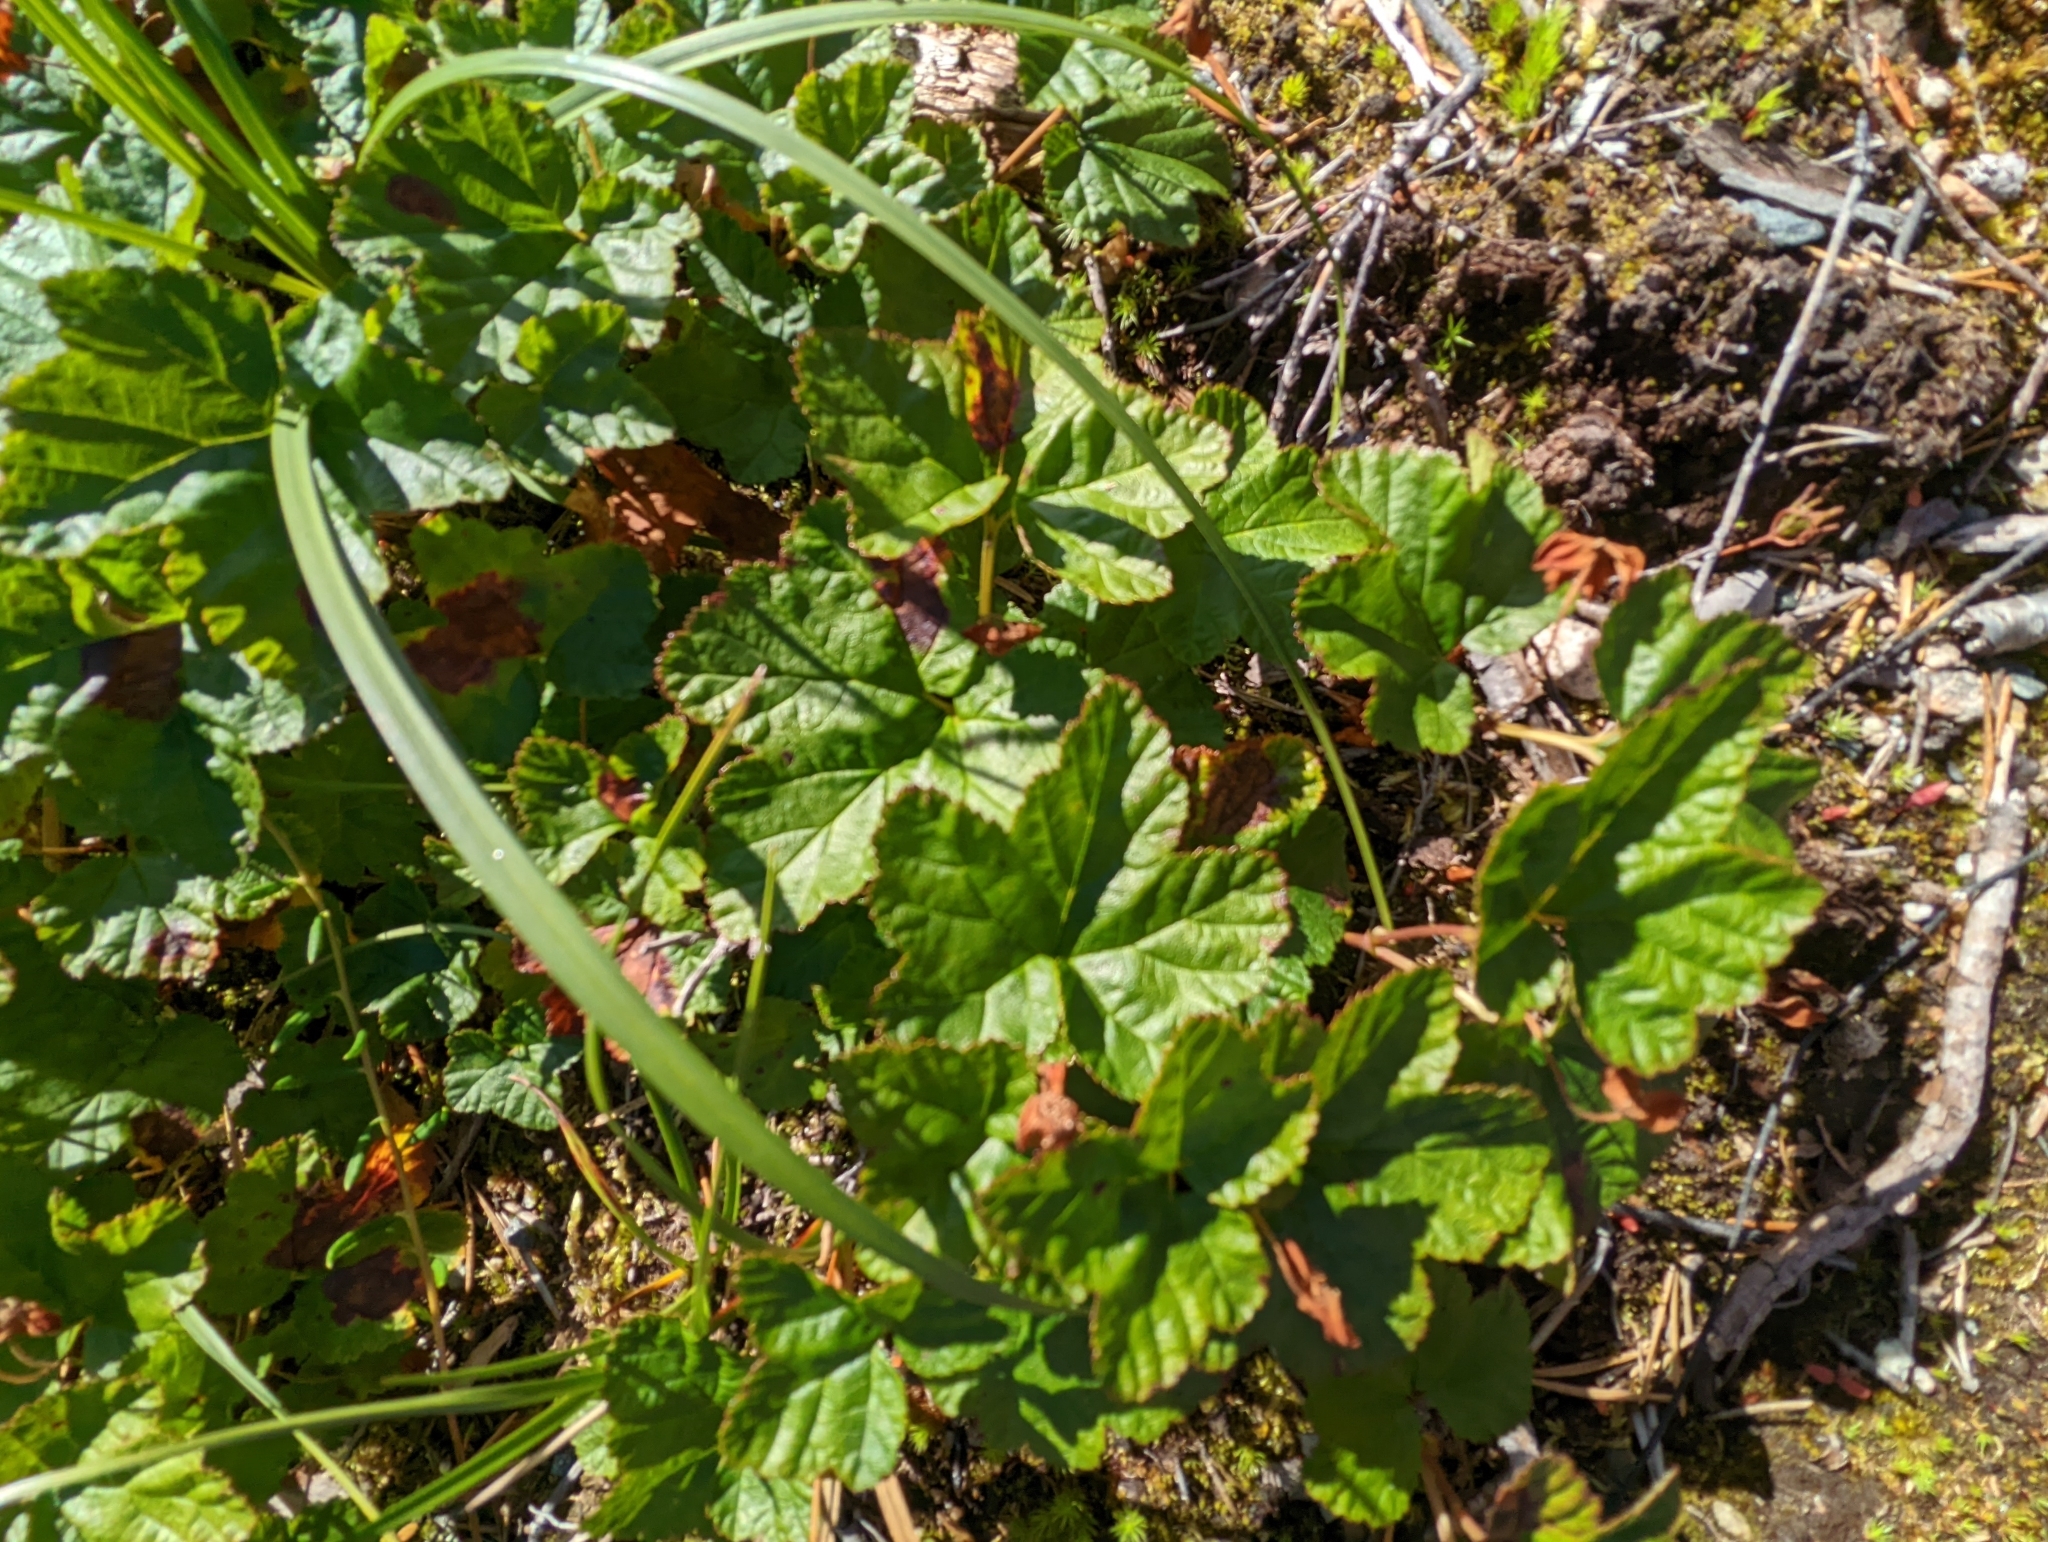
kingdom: Plantae
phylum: Tracheophyta
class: Magnoliopsida
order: Rosales
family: Rosaceae
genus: Rubus
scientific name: Rubus chamaemorus
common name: Cloudberry
